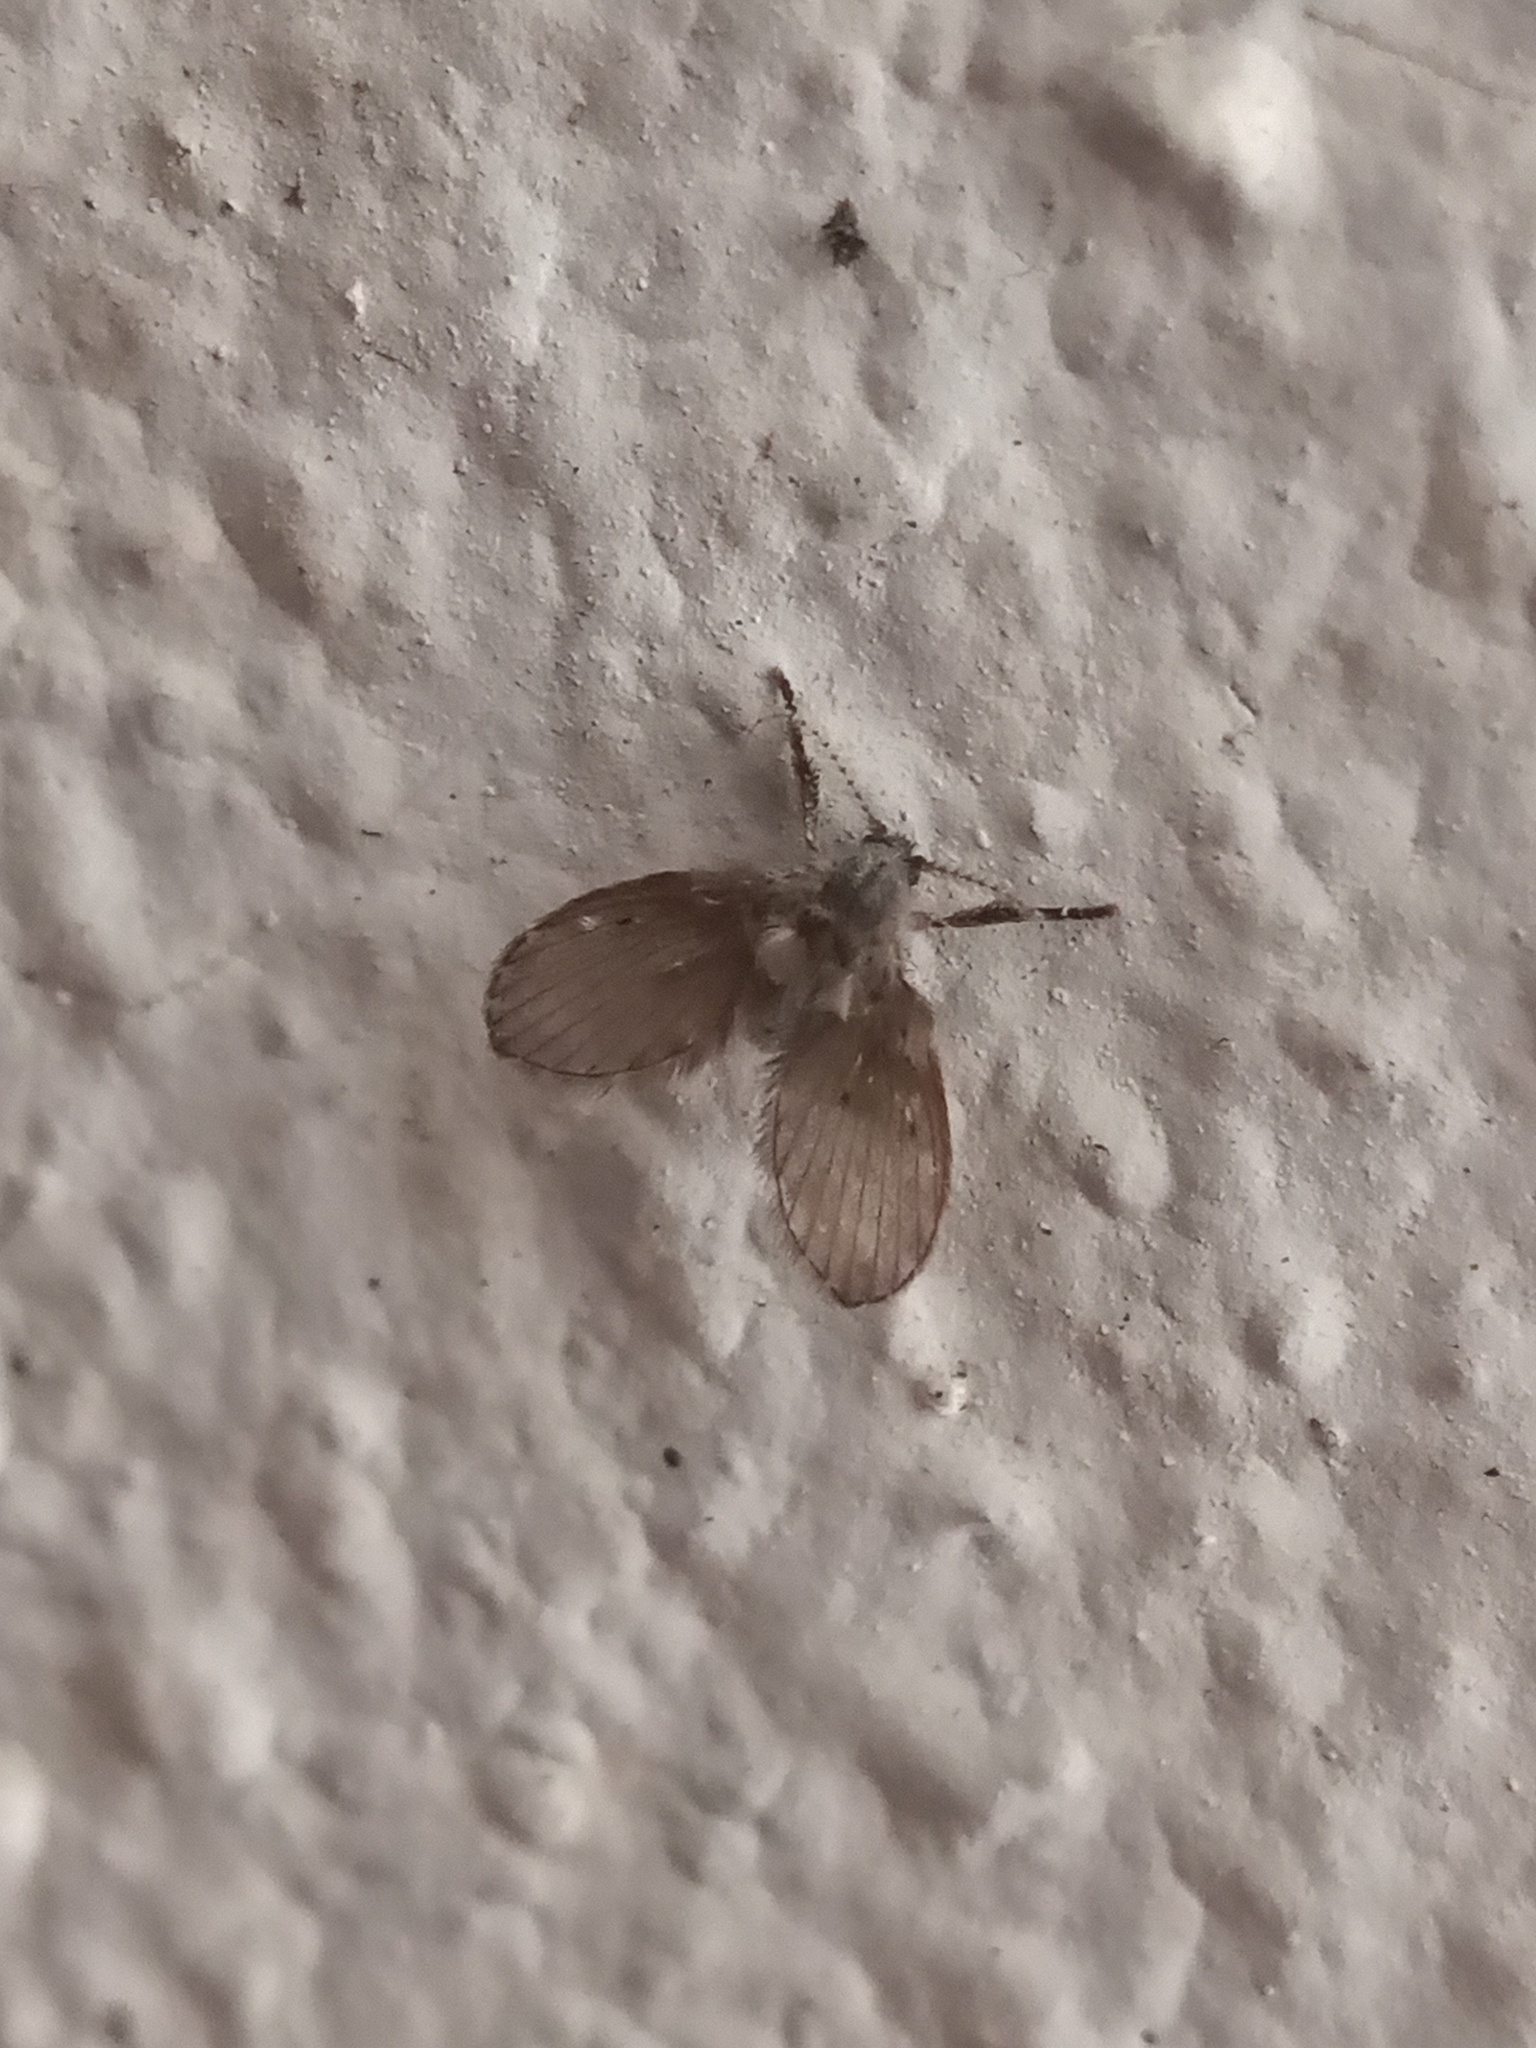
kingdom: Animalia
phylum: Arthropoda
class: Insecta
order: Diptera
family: Psychodidae
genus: Clogmia
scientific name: Clogmia albipunctatus
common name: White-spotted moth fly
